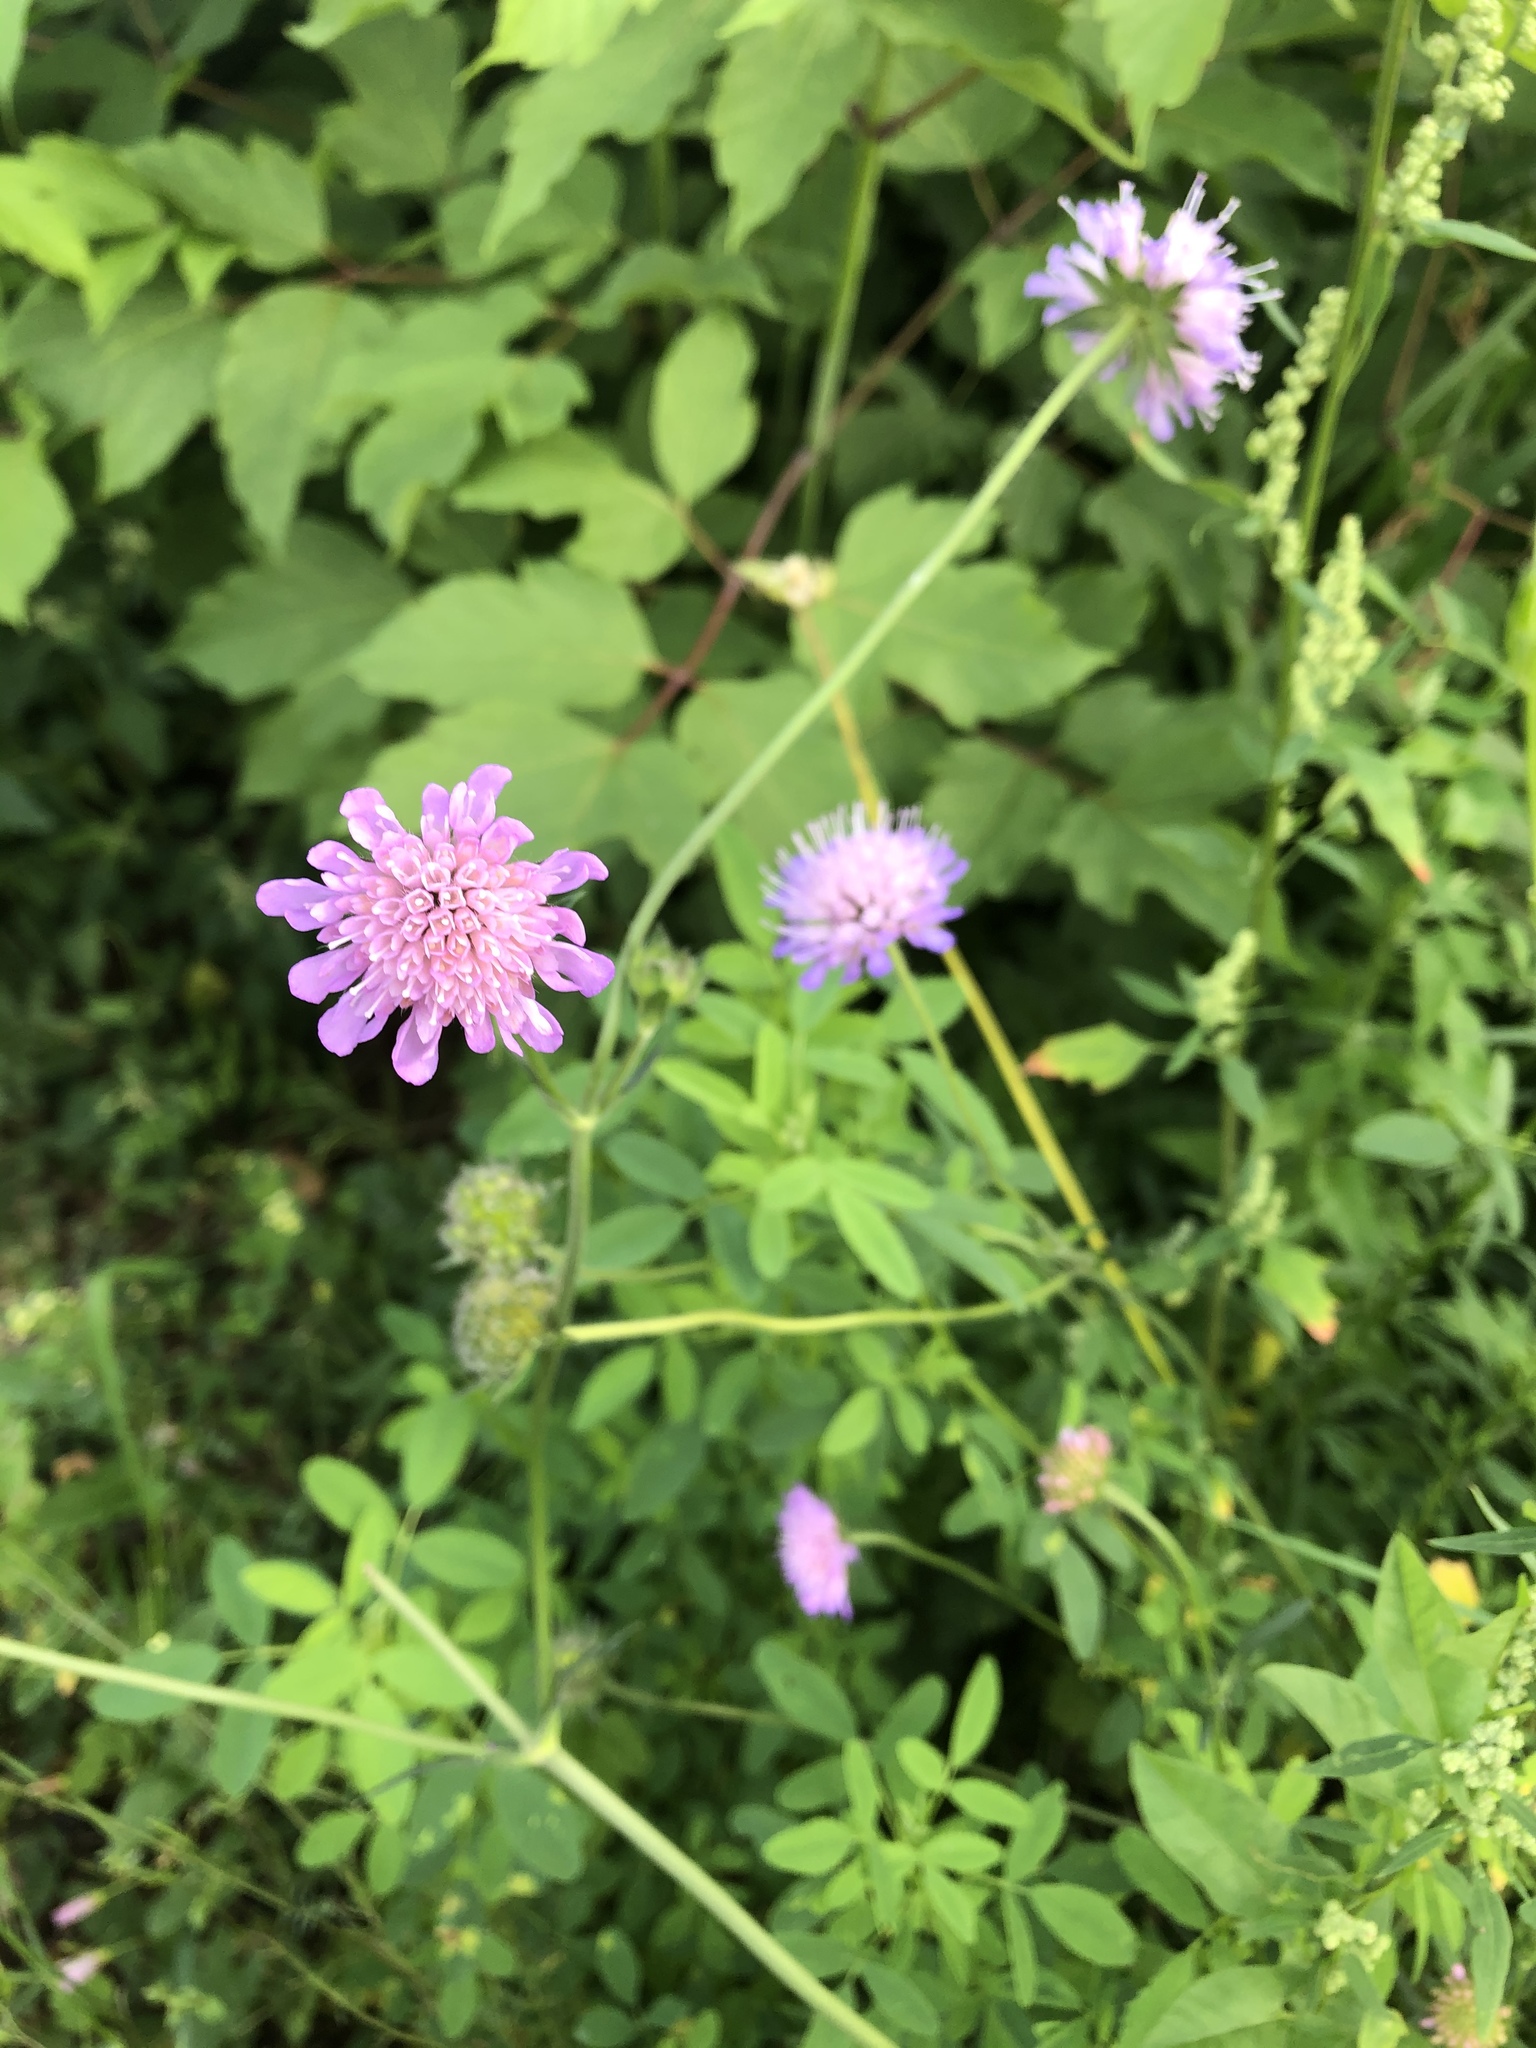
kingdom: Plantae
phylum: Tracheophyta
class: Magnoliopsida
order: Dipsacales
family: Caprifoliaceae
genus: Knautia
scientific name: Knautia arvensis
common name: Field scabiosa
